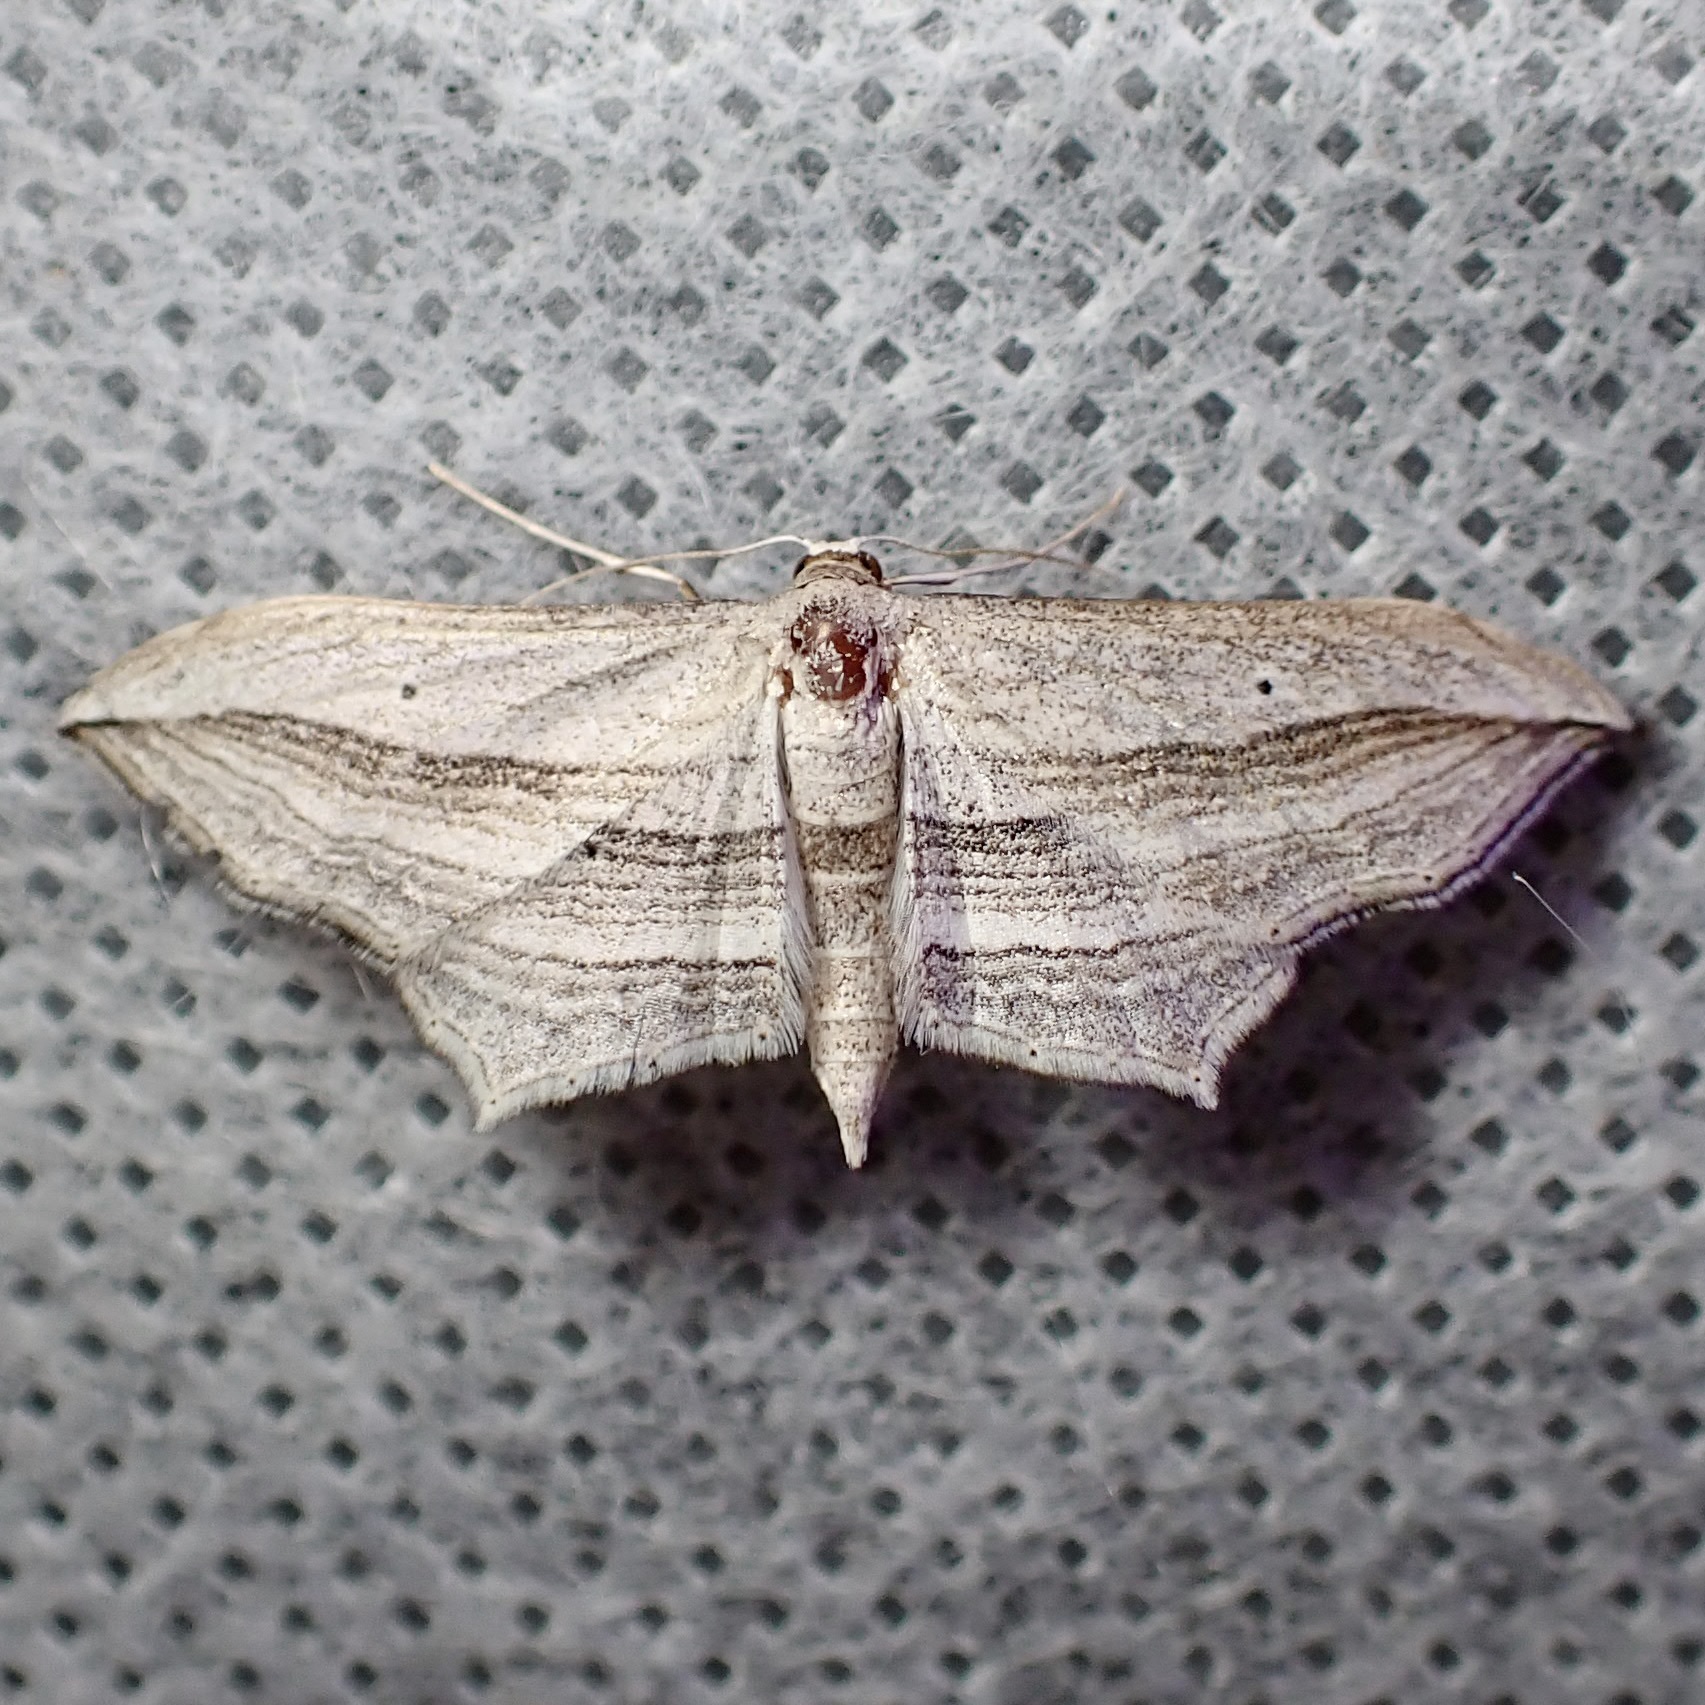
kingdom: Animalia
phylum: Arthropoda
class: Insecta
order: Lepidoptera
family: Geometridae
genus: Arcobara
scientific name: Arcobara multilineata
